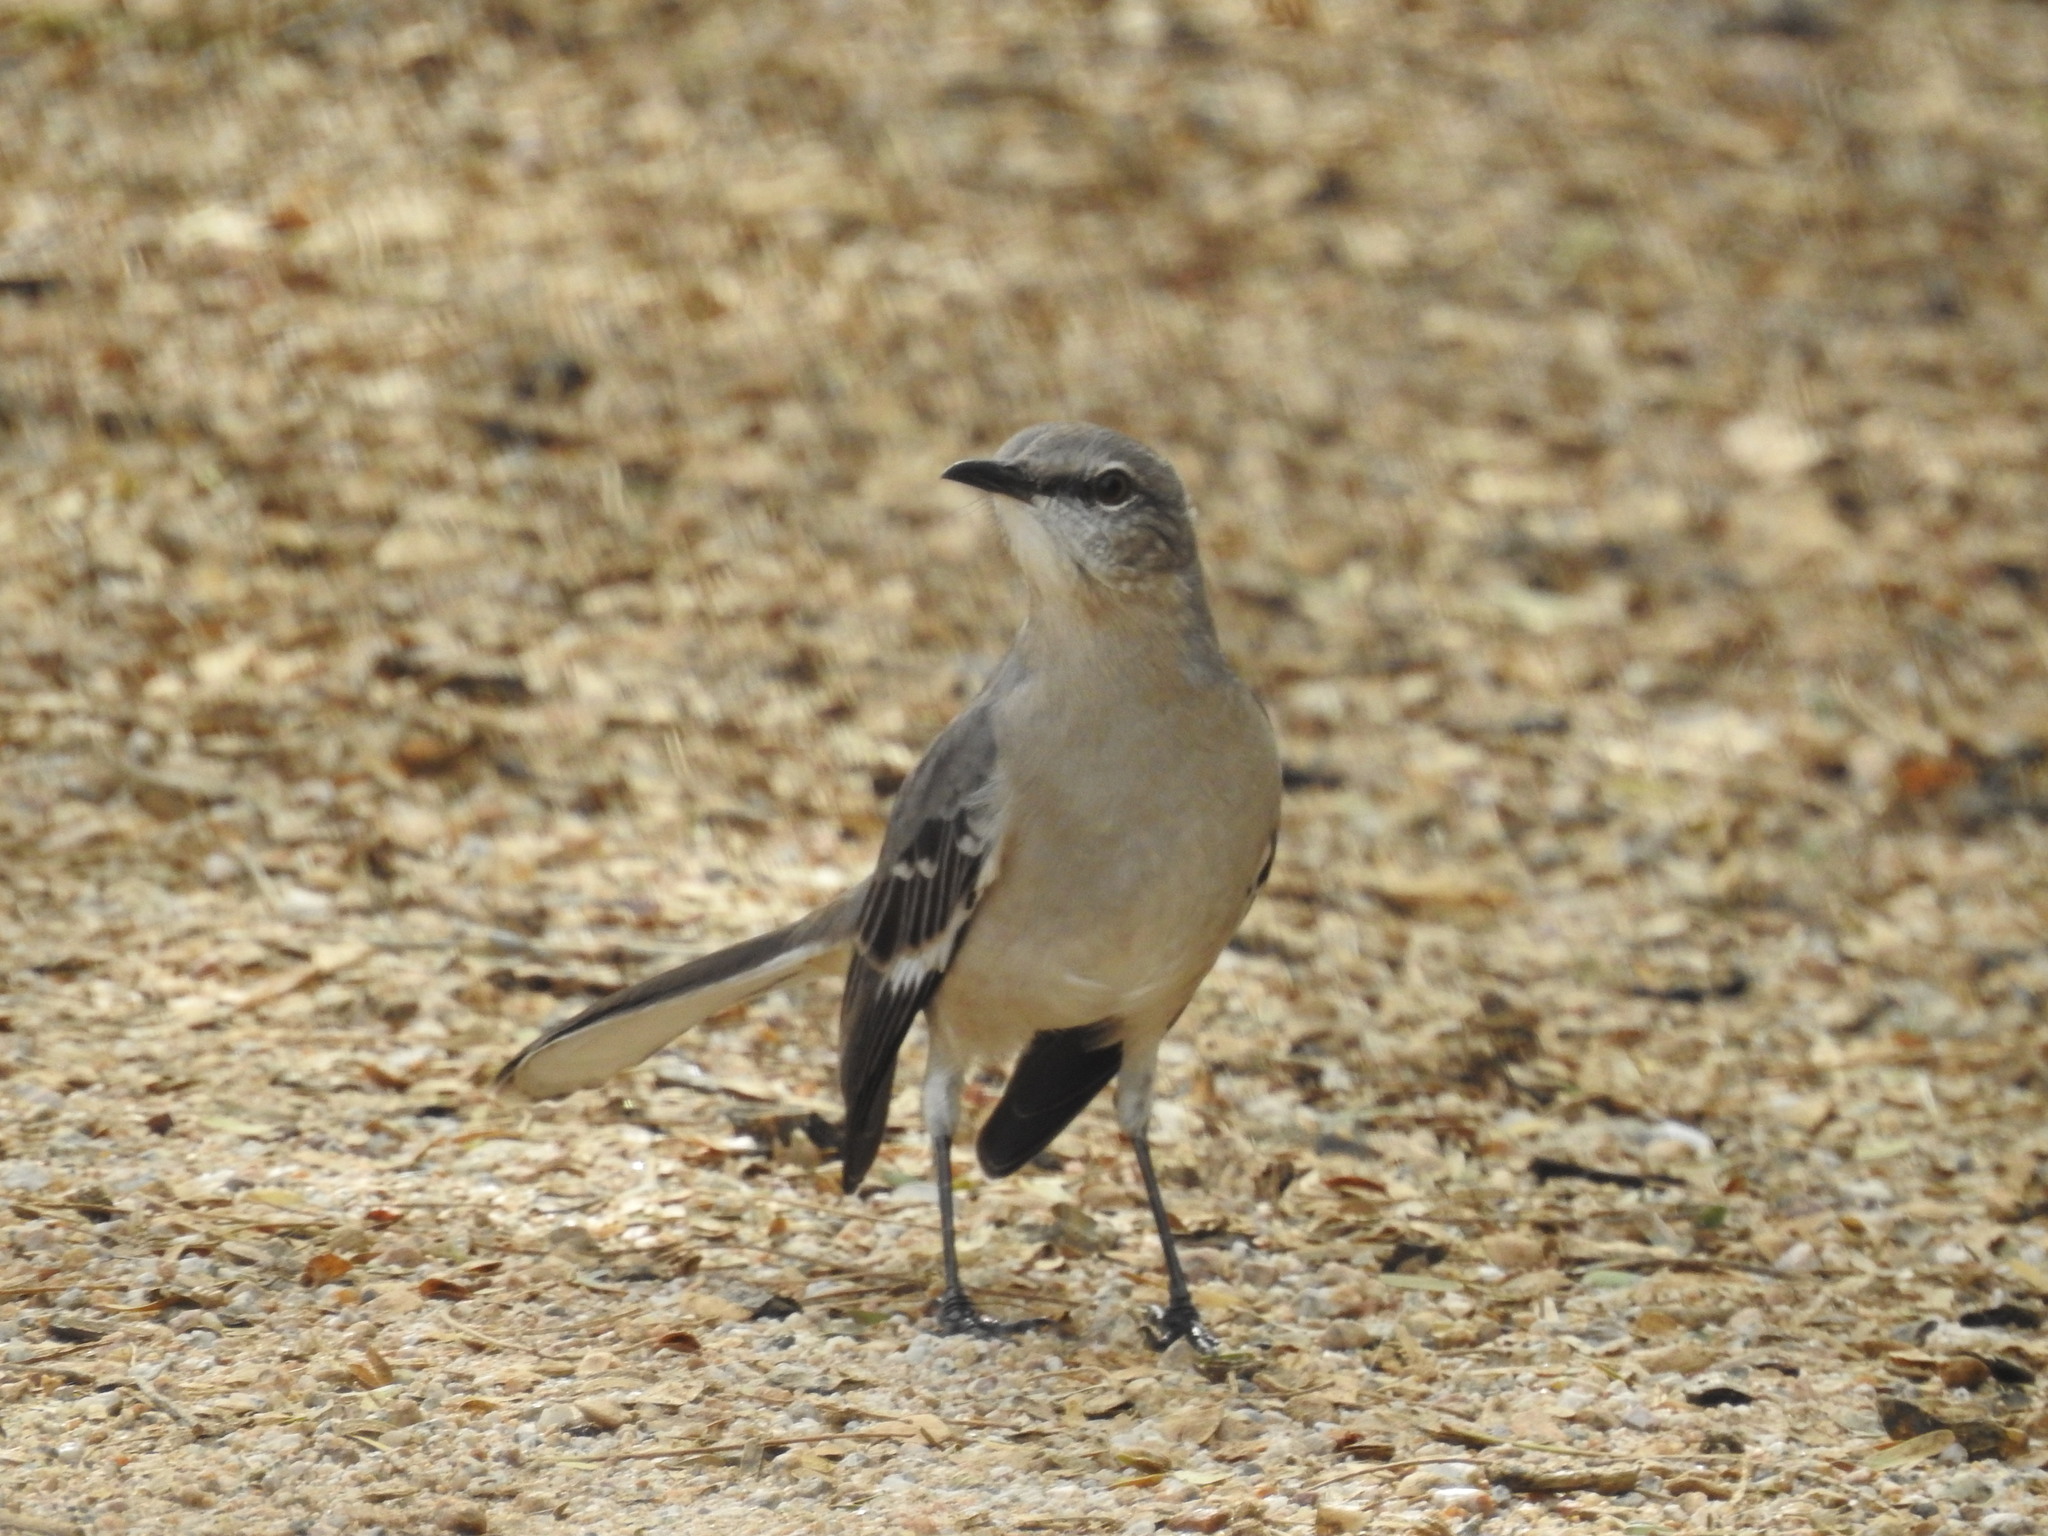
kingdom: Animalia
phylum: Chordata
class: Aves
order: Passeriformes
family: Mimidae
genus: Mimus
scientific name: Mimus polyglottos
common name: Northern mockingbird
